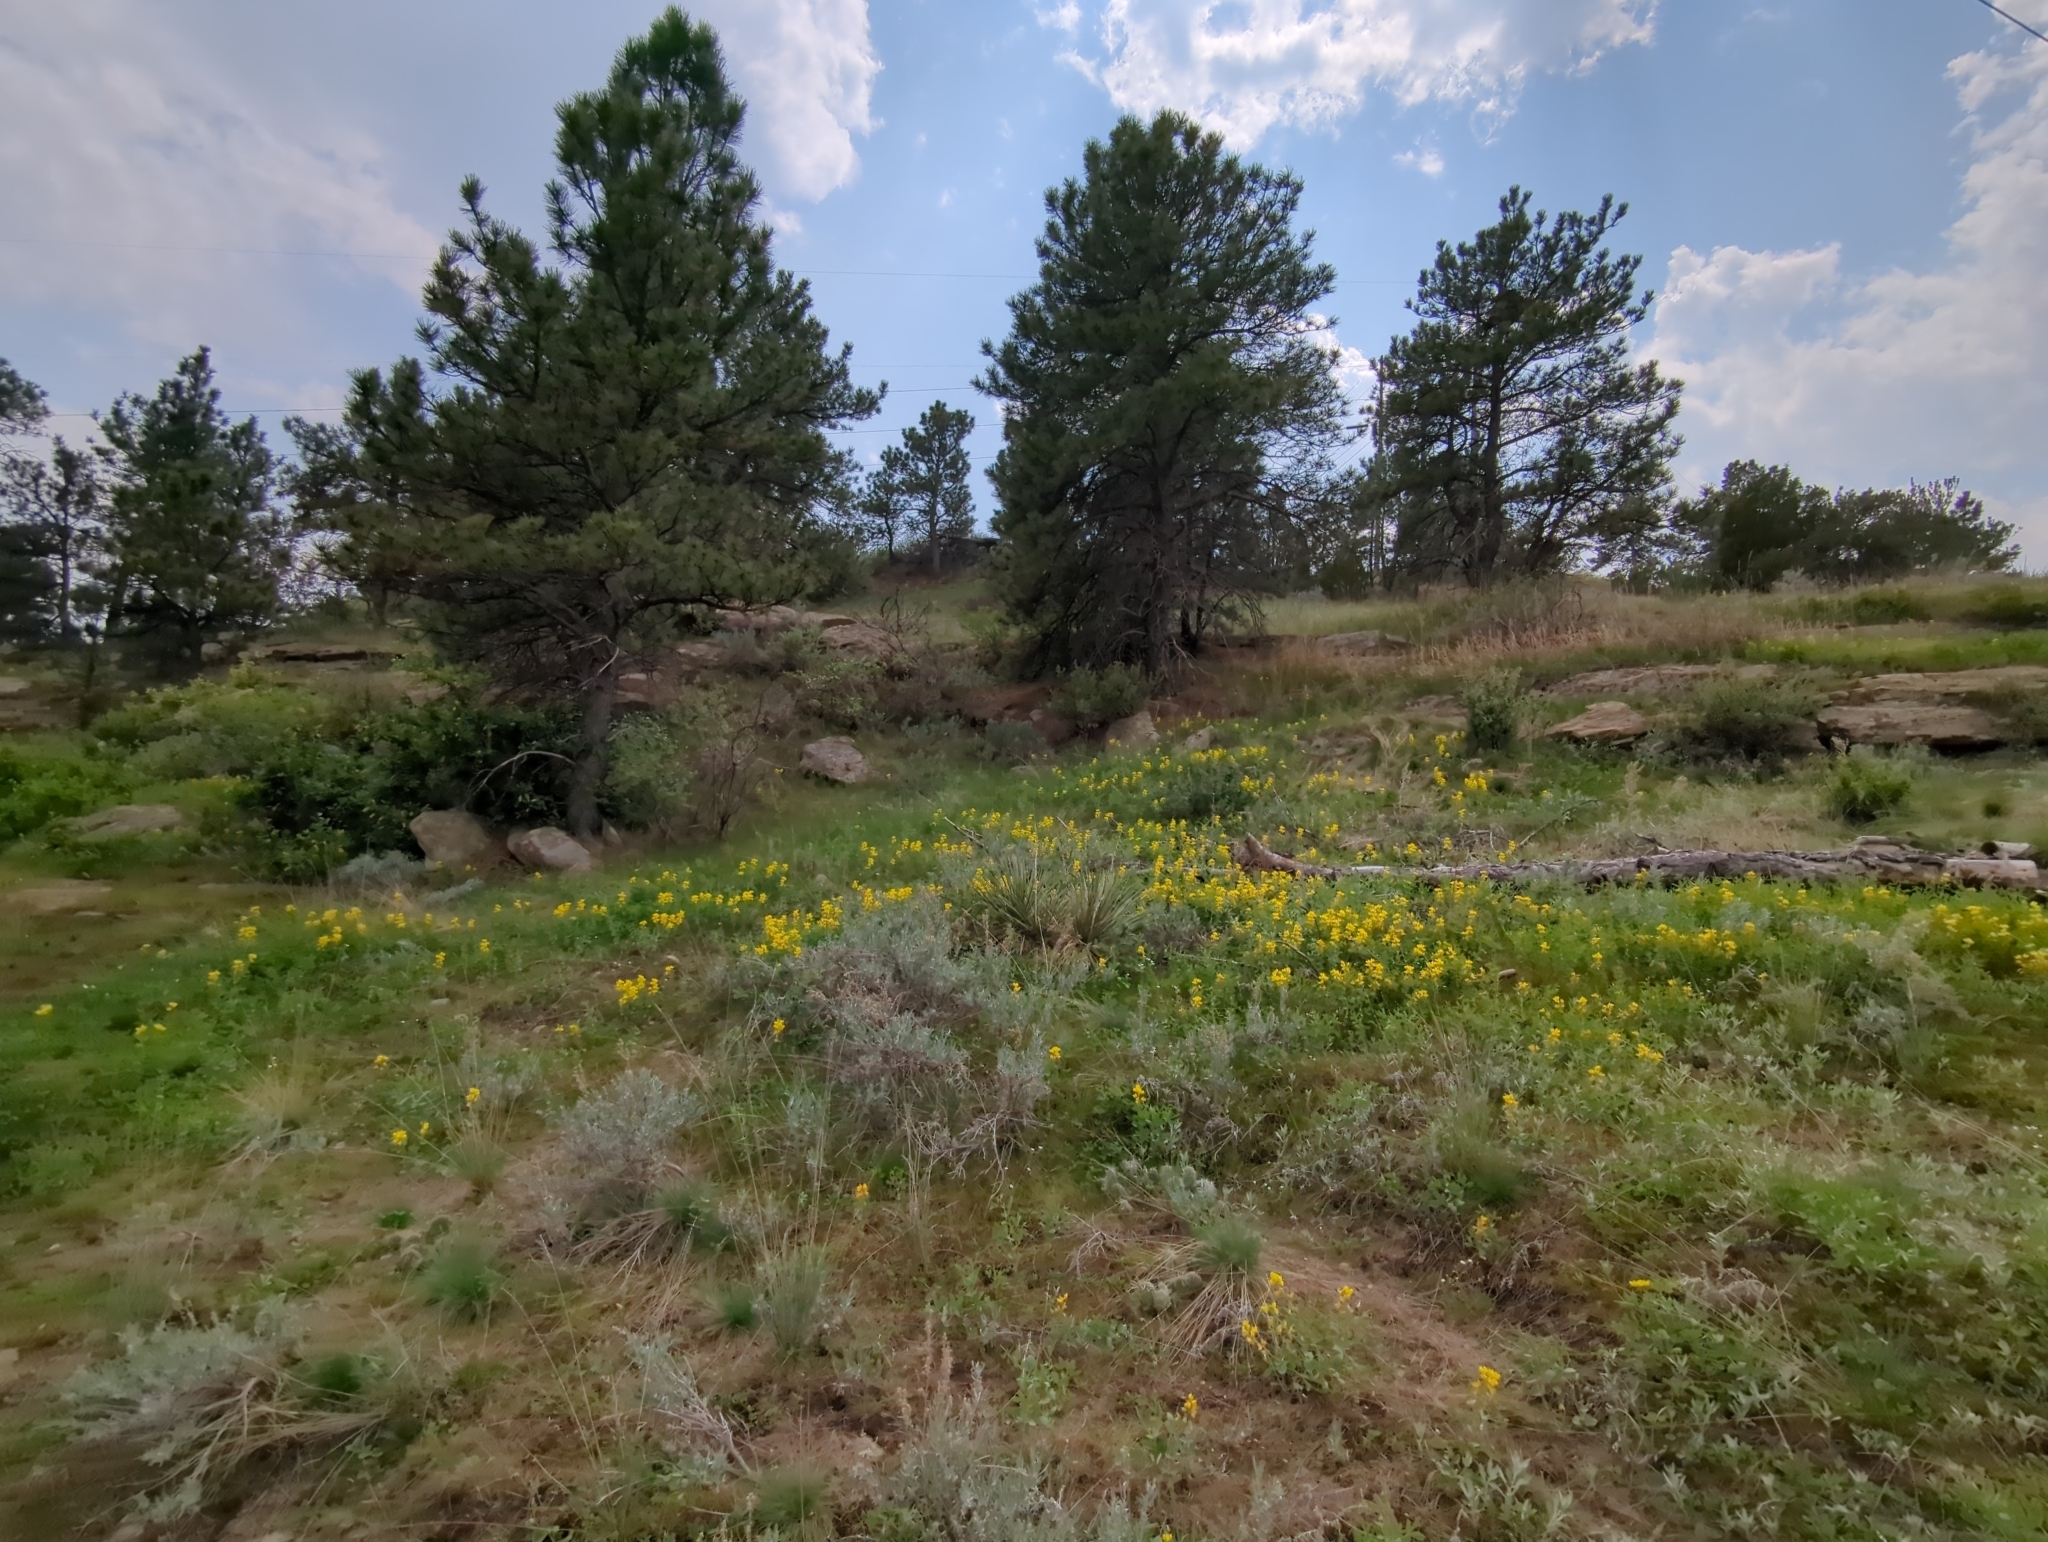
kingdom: Plantae
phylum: Tracheophyta
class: Magnoliopsida
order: Fabales
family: Fabaceae
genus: Thermopsis
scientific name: Thermopsis rhombifolia
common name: Circle-pod-pea
